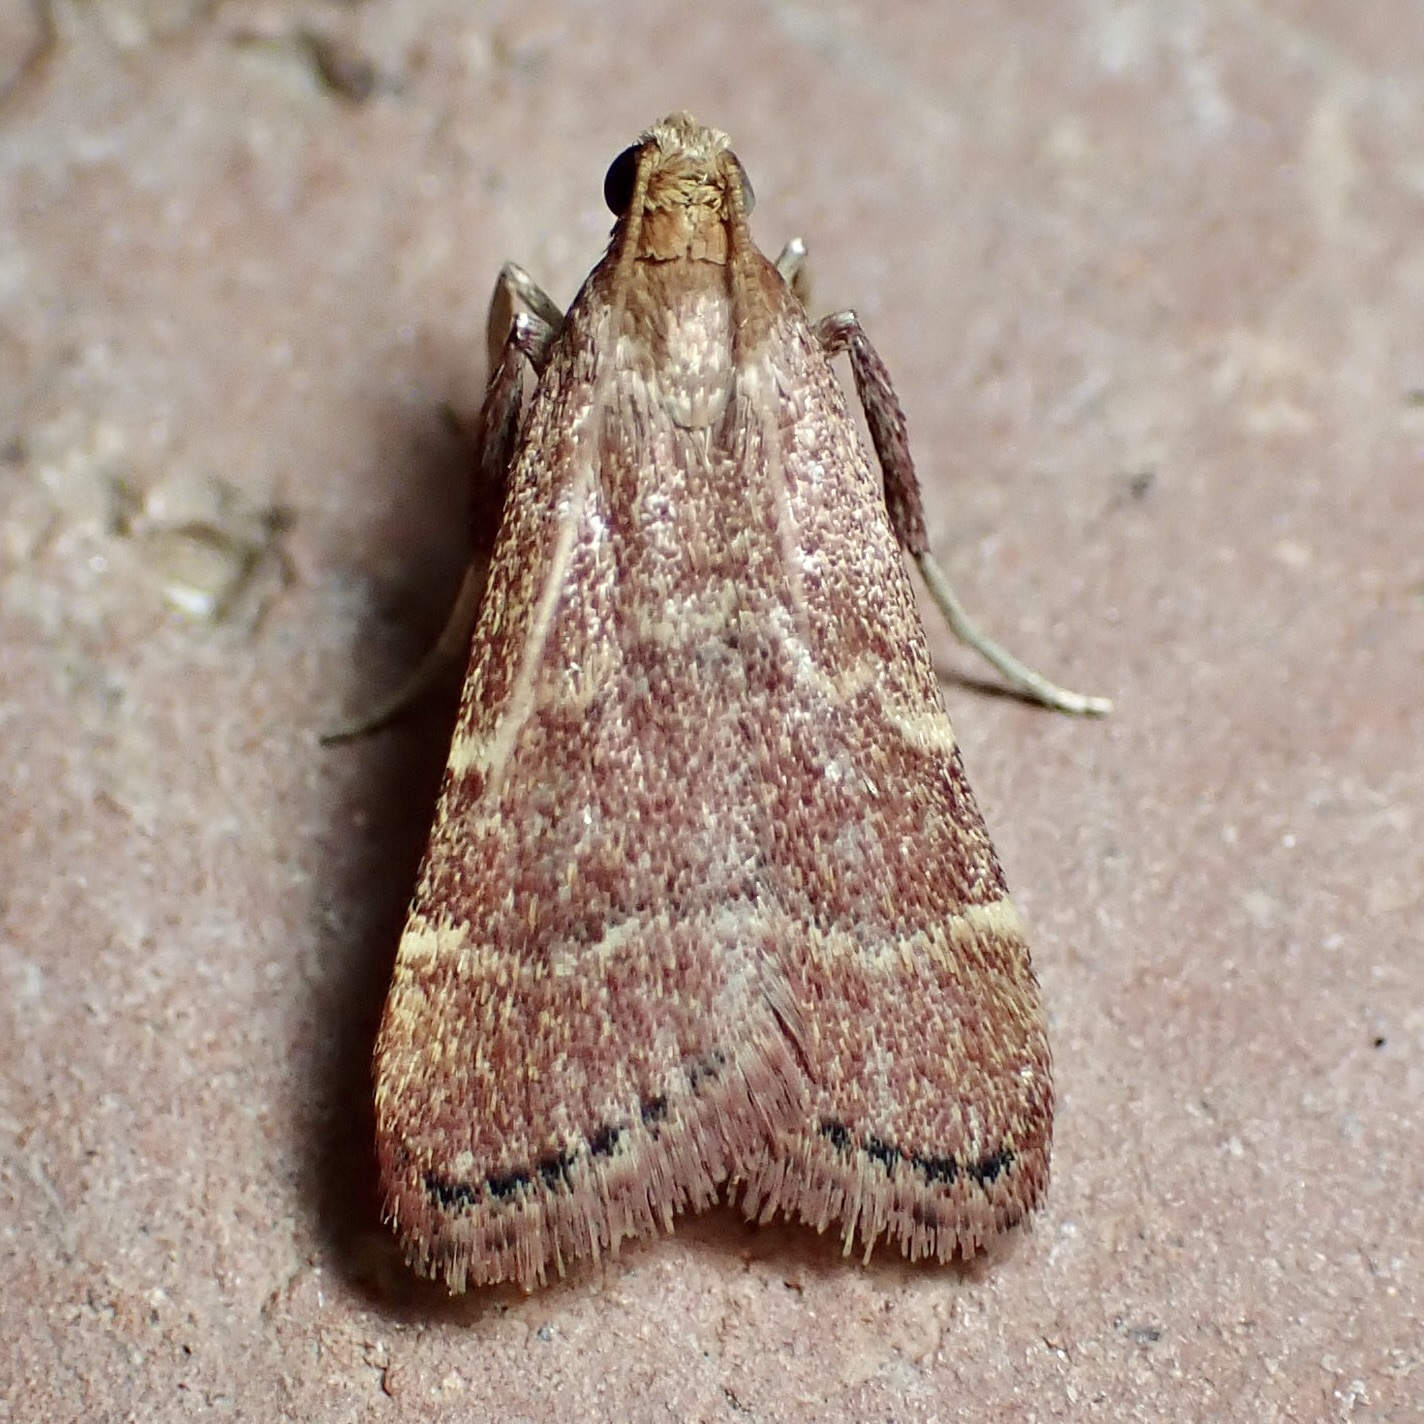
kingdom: Animalia
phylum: Arthropoda
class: Insecta
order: Lepidoptera
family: Pyralidae
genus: Arta
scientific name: Arta epicoenalis
